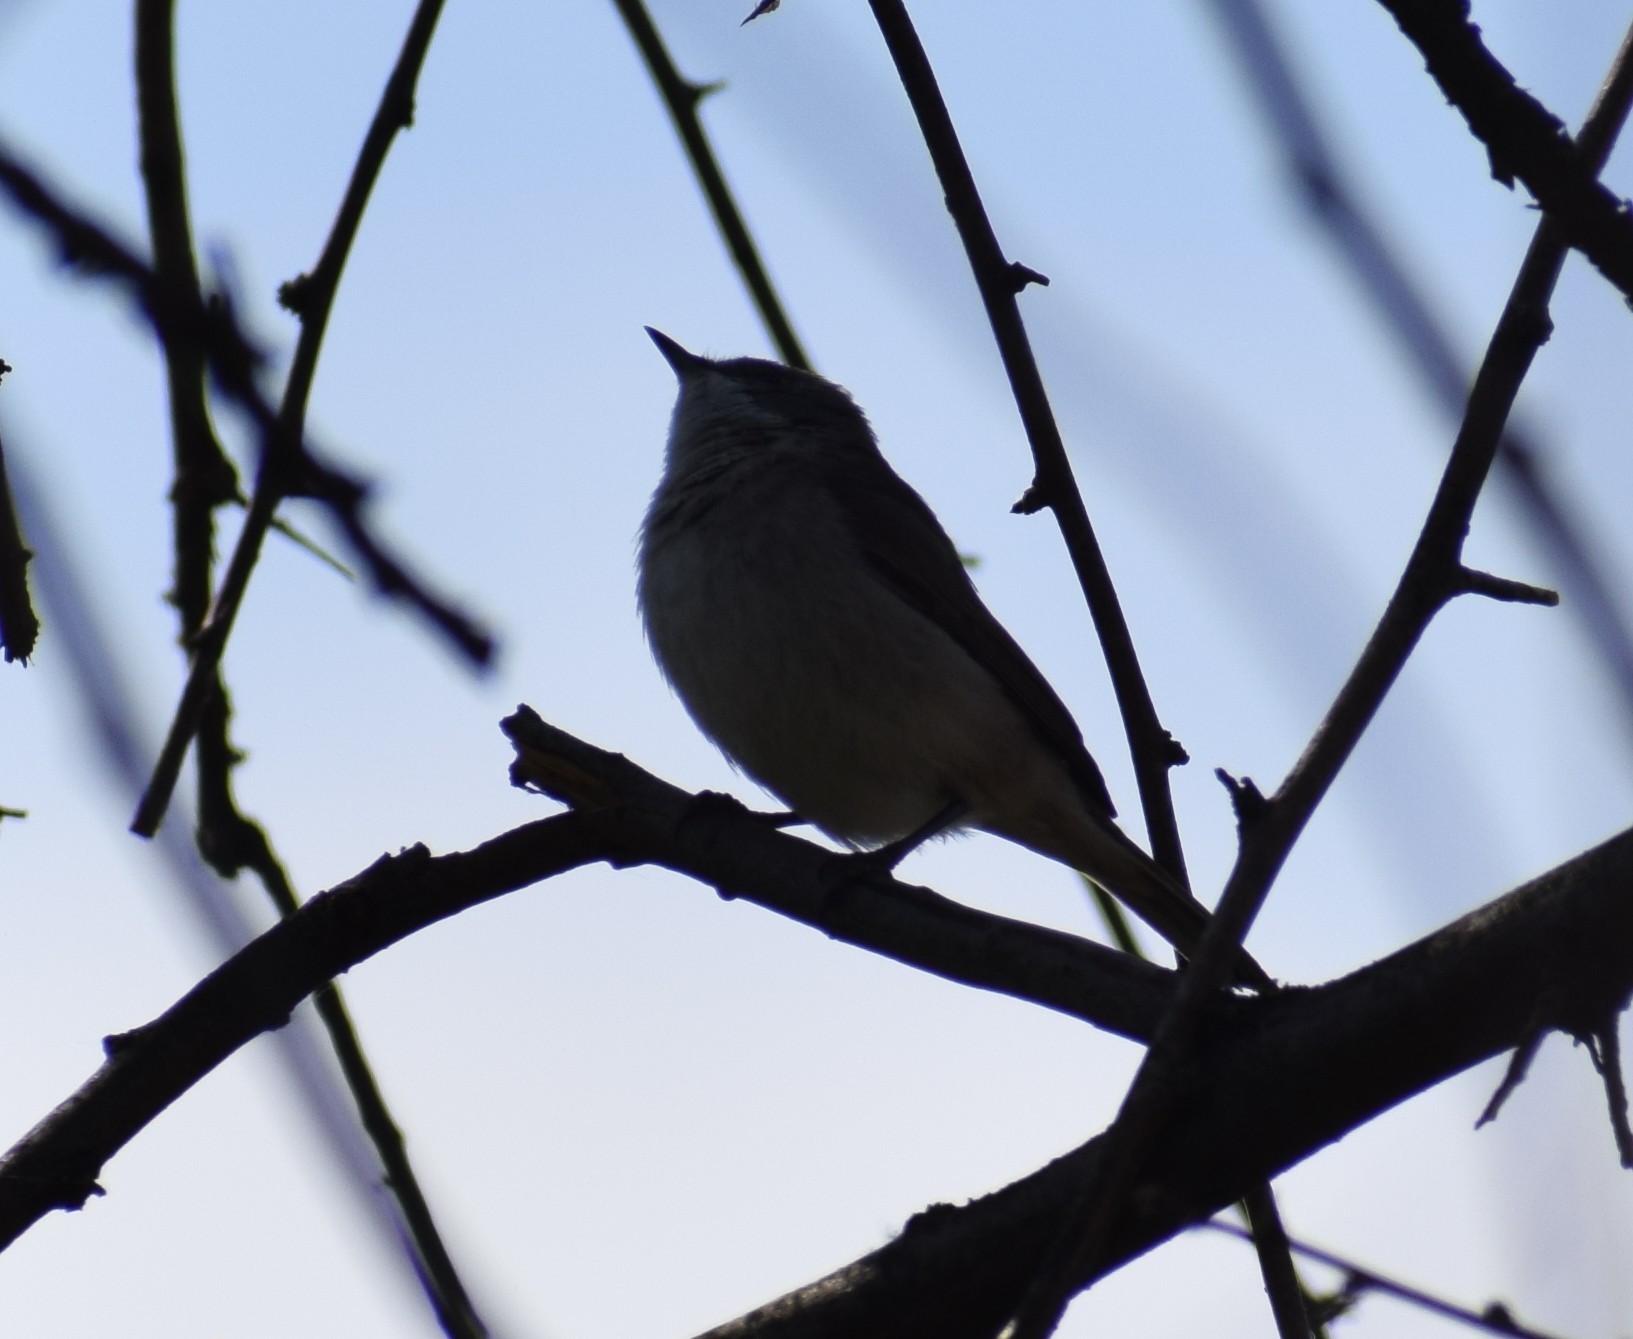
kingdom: Animalia
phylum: Chordata
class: Aves
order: Passeriformes
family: Sylviidae
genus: Sylvia
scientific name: Sylvia curruca
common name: Lesser whitethroat
